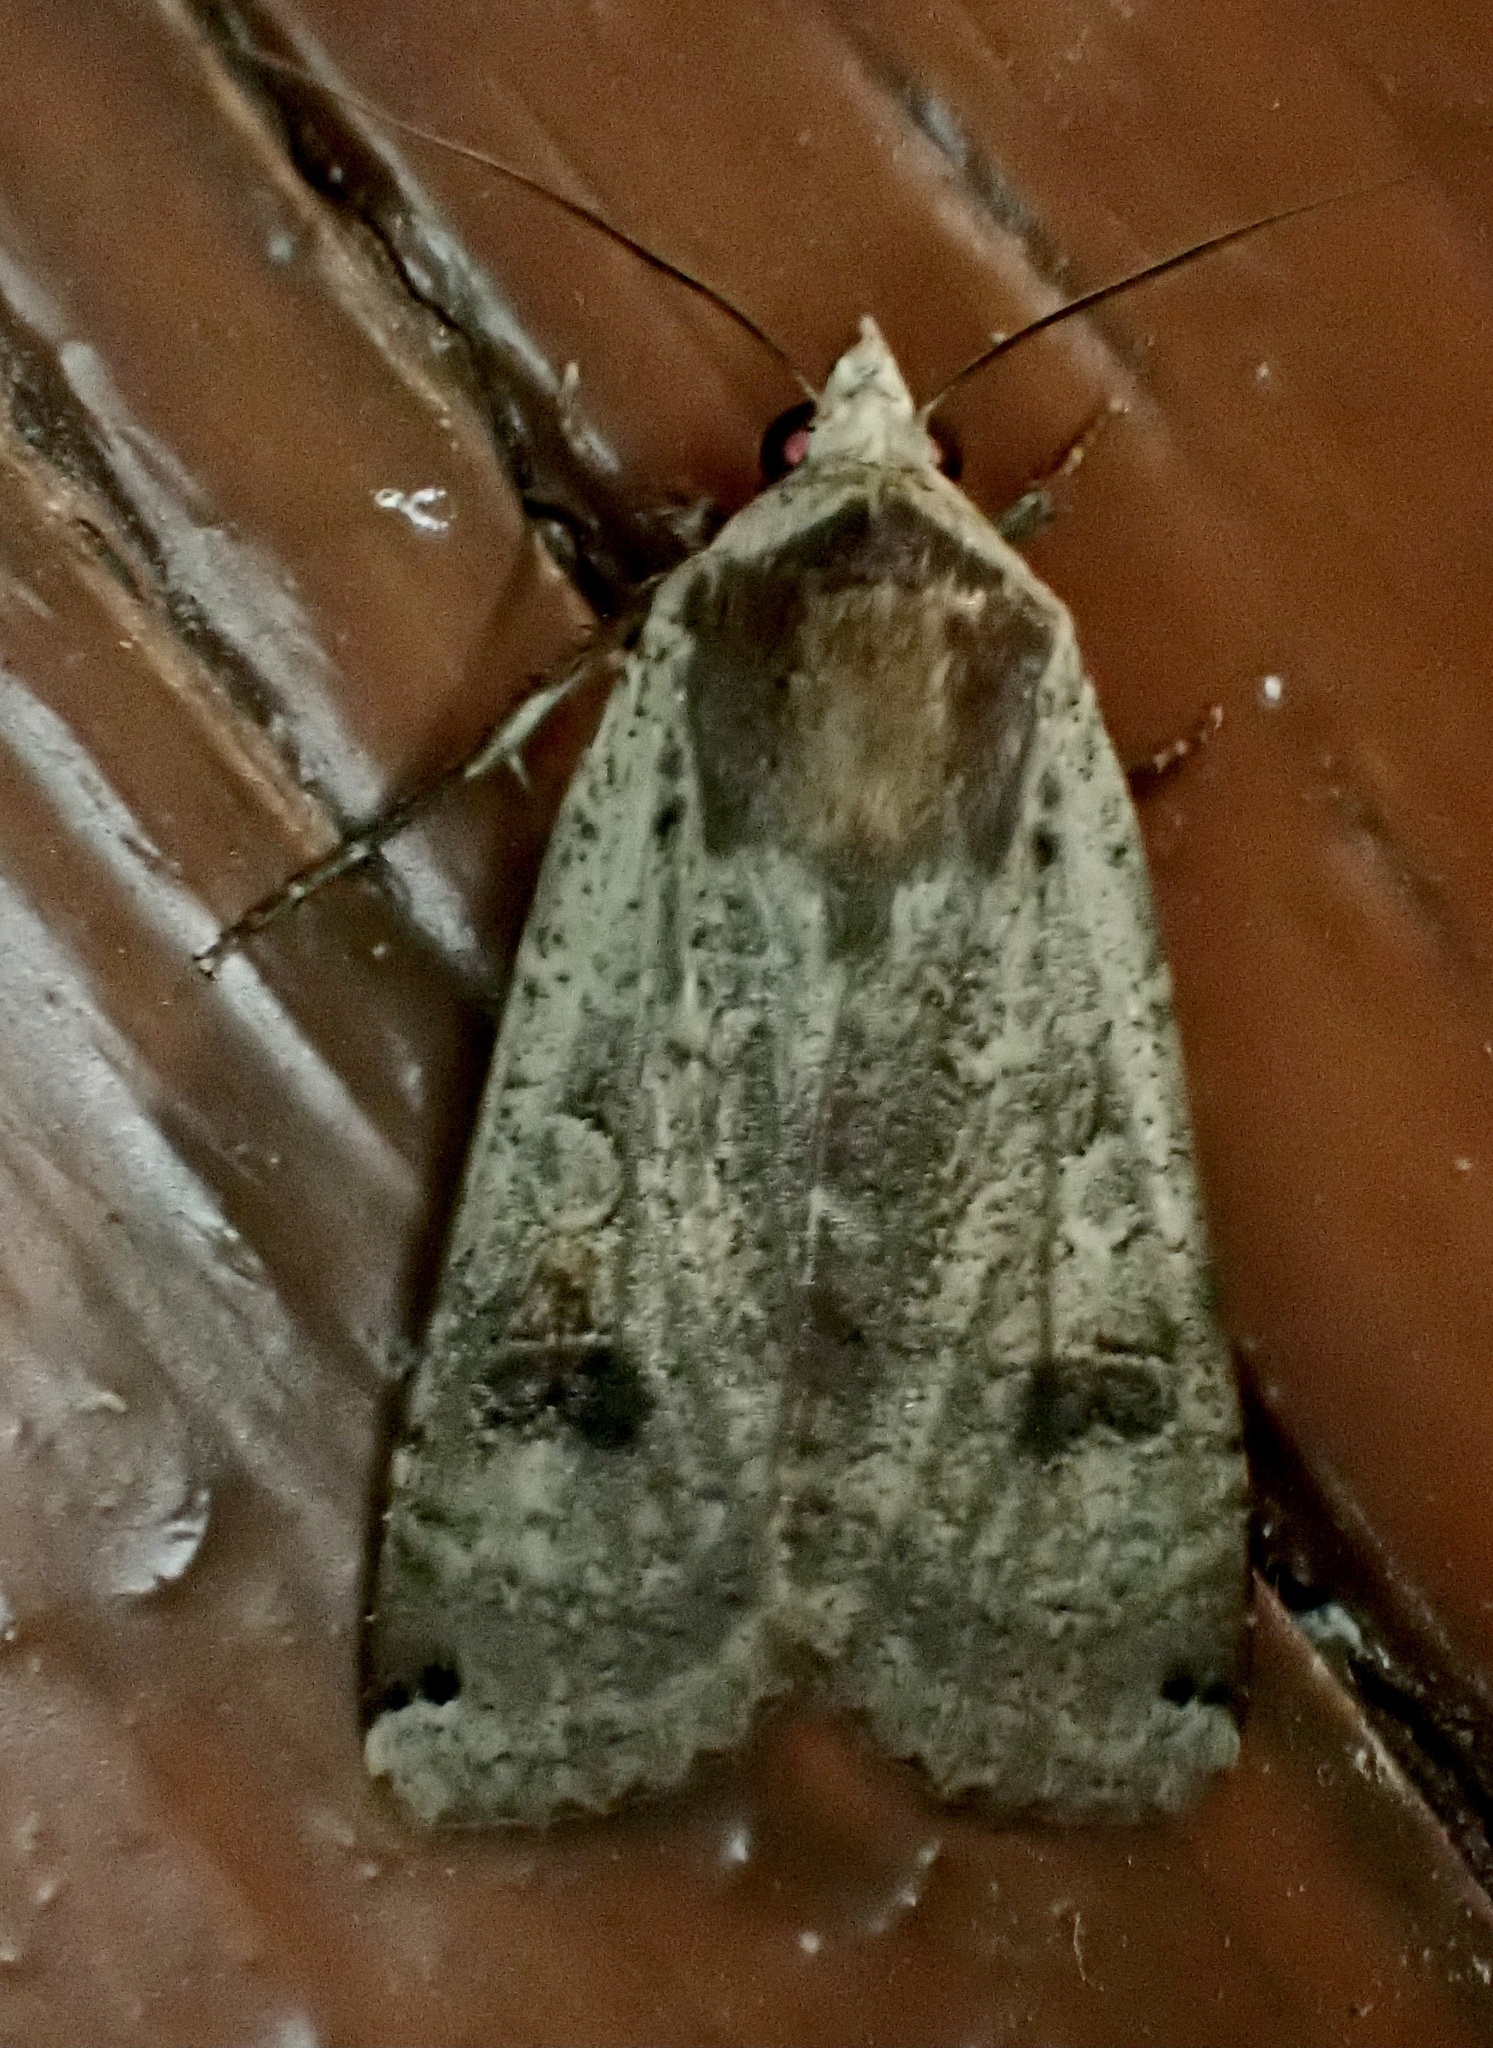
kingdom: Animalia
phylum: Arthropoda
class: Insecta
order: Lepidoptera
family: Noctuidae
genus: Noctua
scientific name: Noctua pronuba
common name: Large yellow underwing
